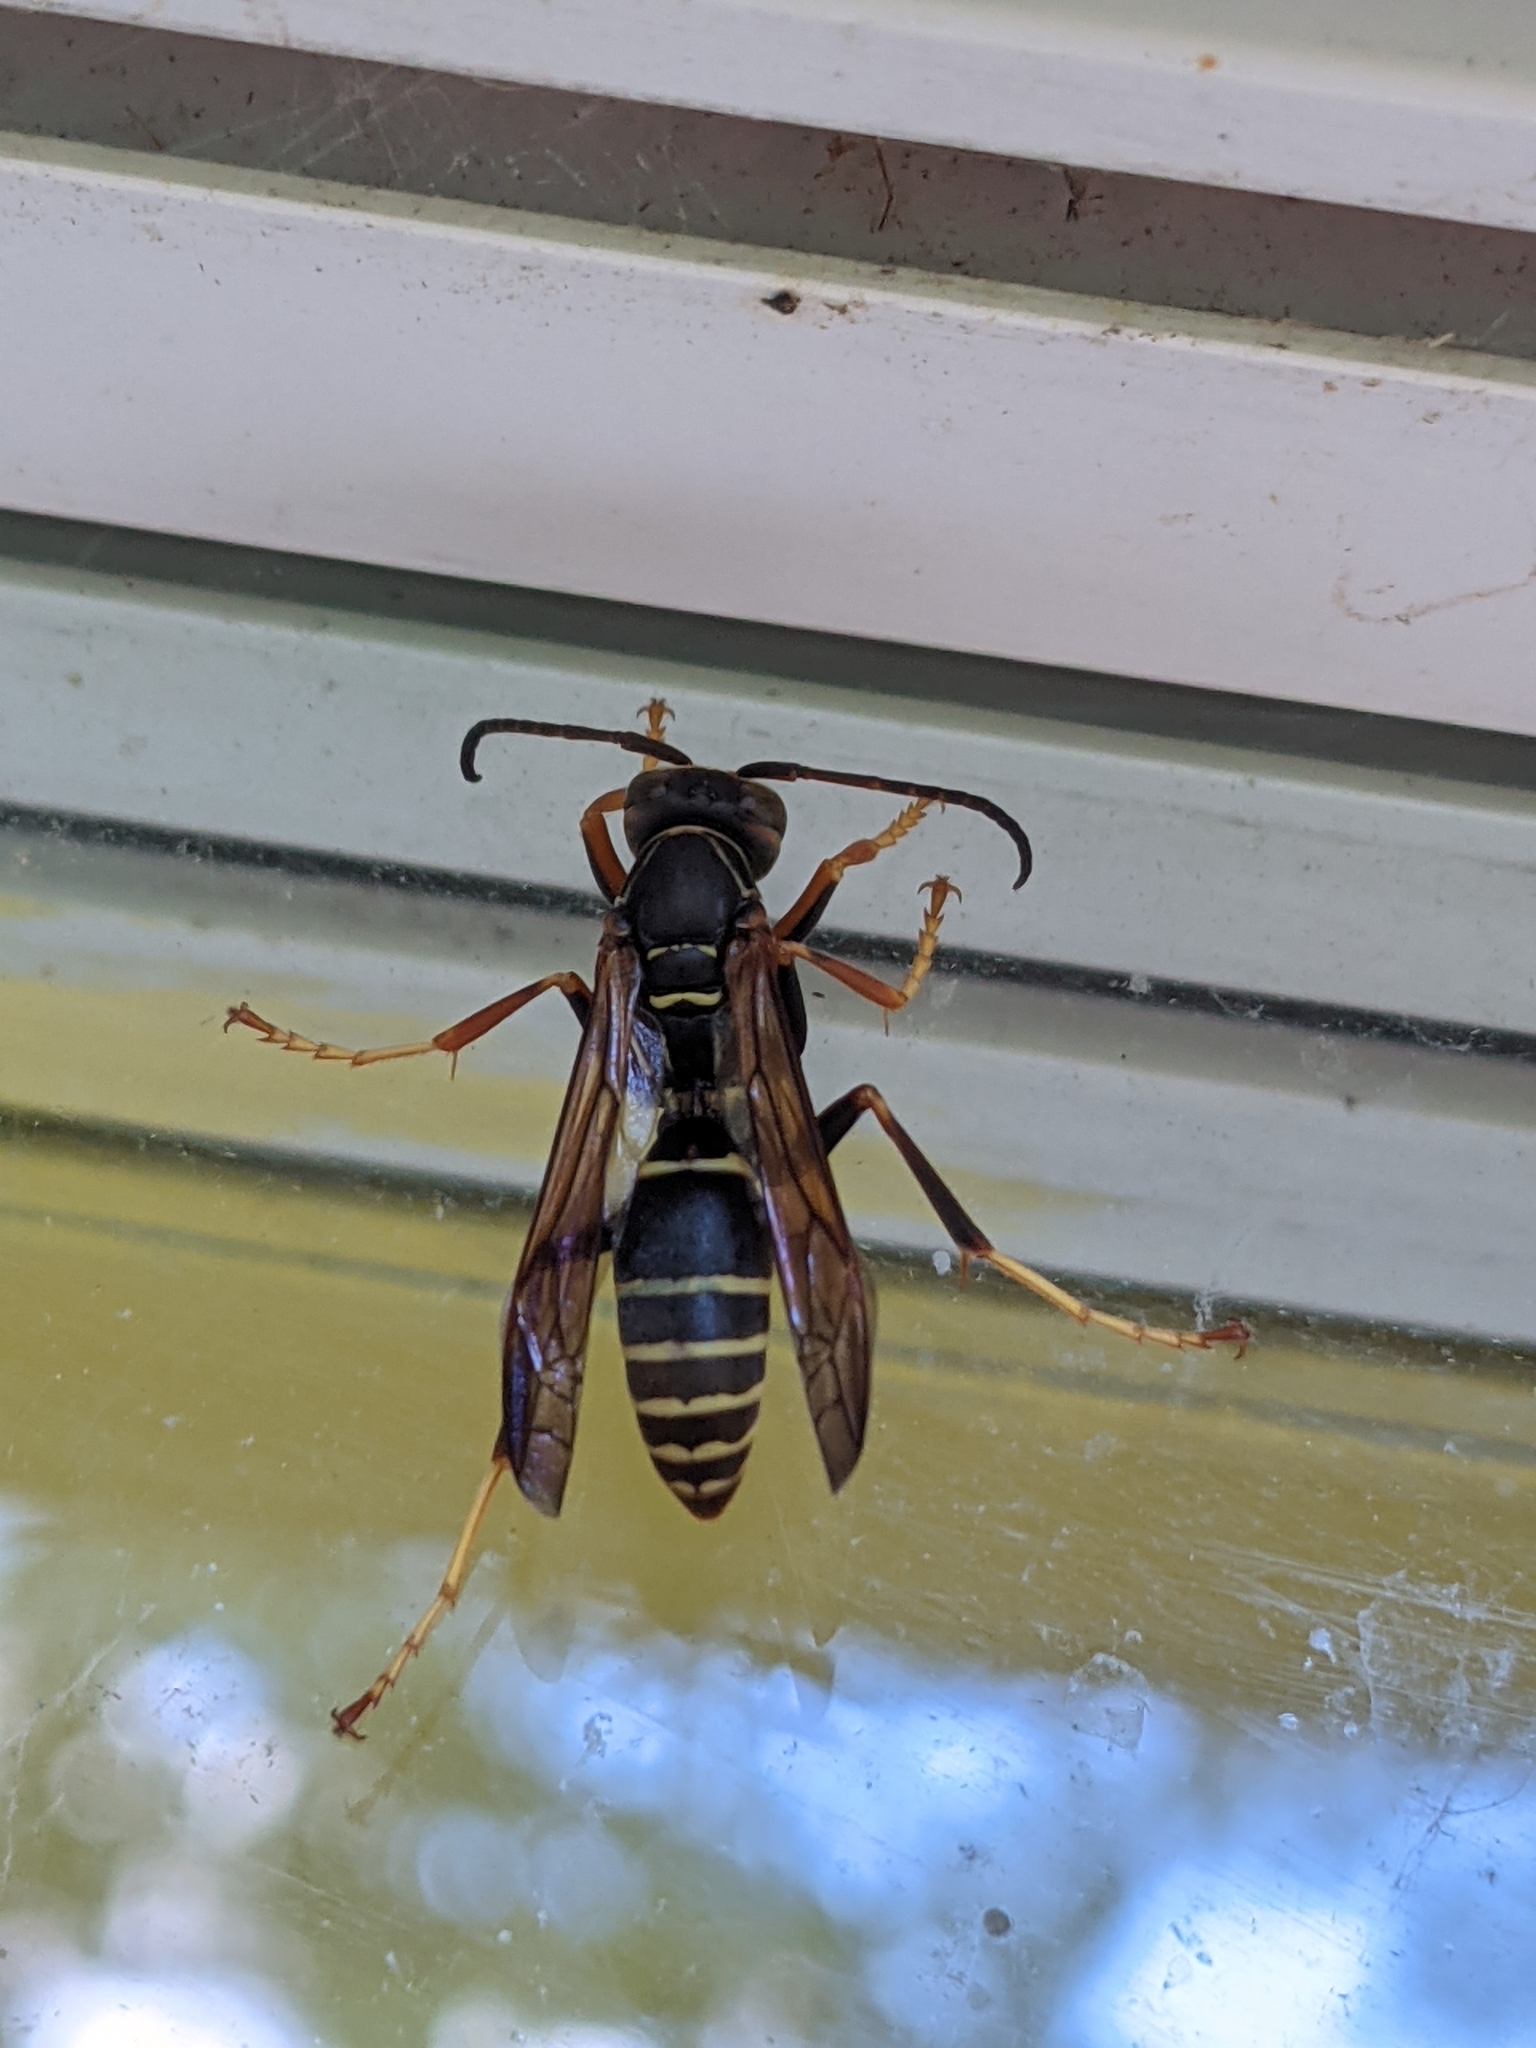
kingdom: Animalia
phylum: Arthropoda
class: Insecta
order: Hymenoptera
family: Eumenidae
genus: Polistes
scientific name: Polistes fuscatus
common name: Dark paper wasp
